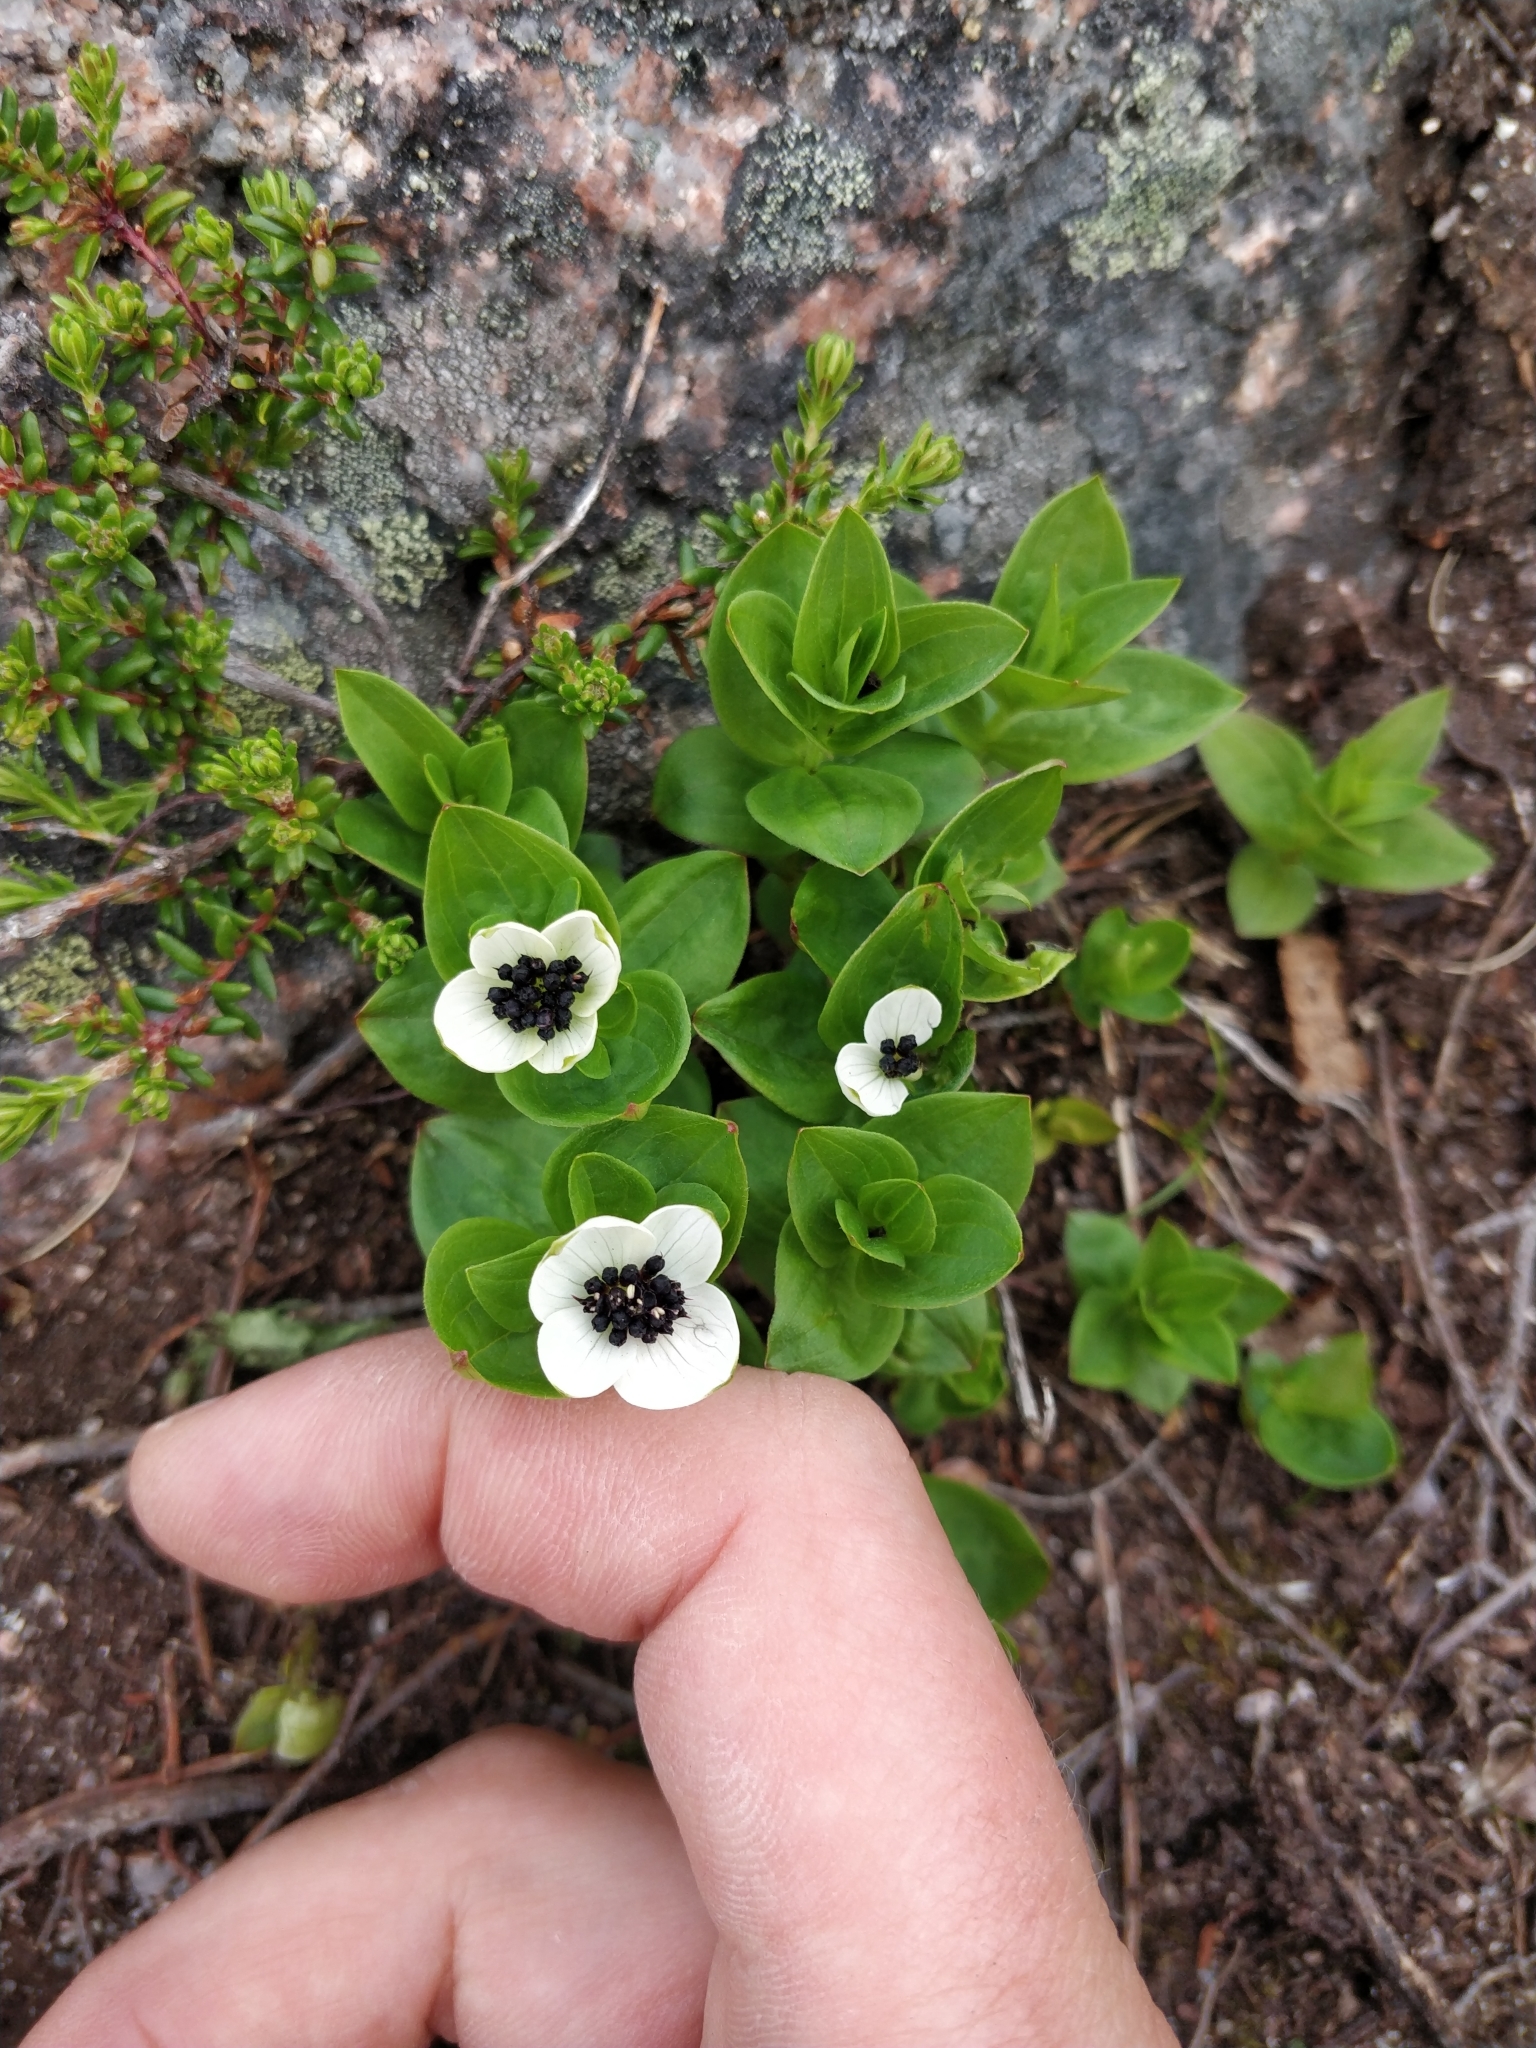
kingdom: Plantae
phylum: Tracheophyta
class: Magnoliopsida
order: Cornales
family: Cornaceae
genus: Cornus
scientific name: Cornus suecica
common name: Dwarf cornel
